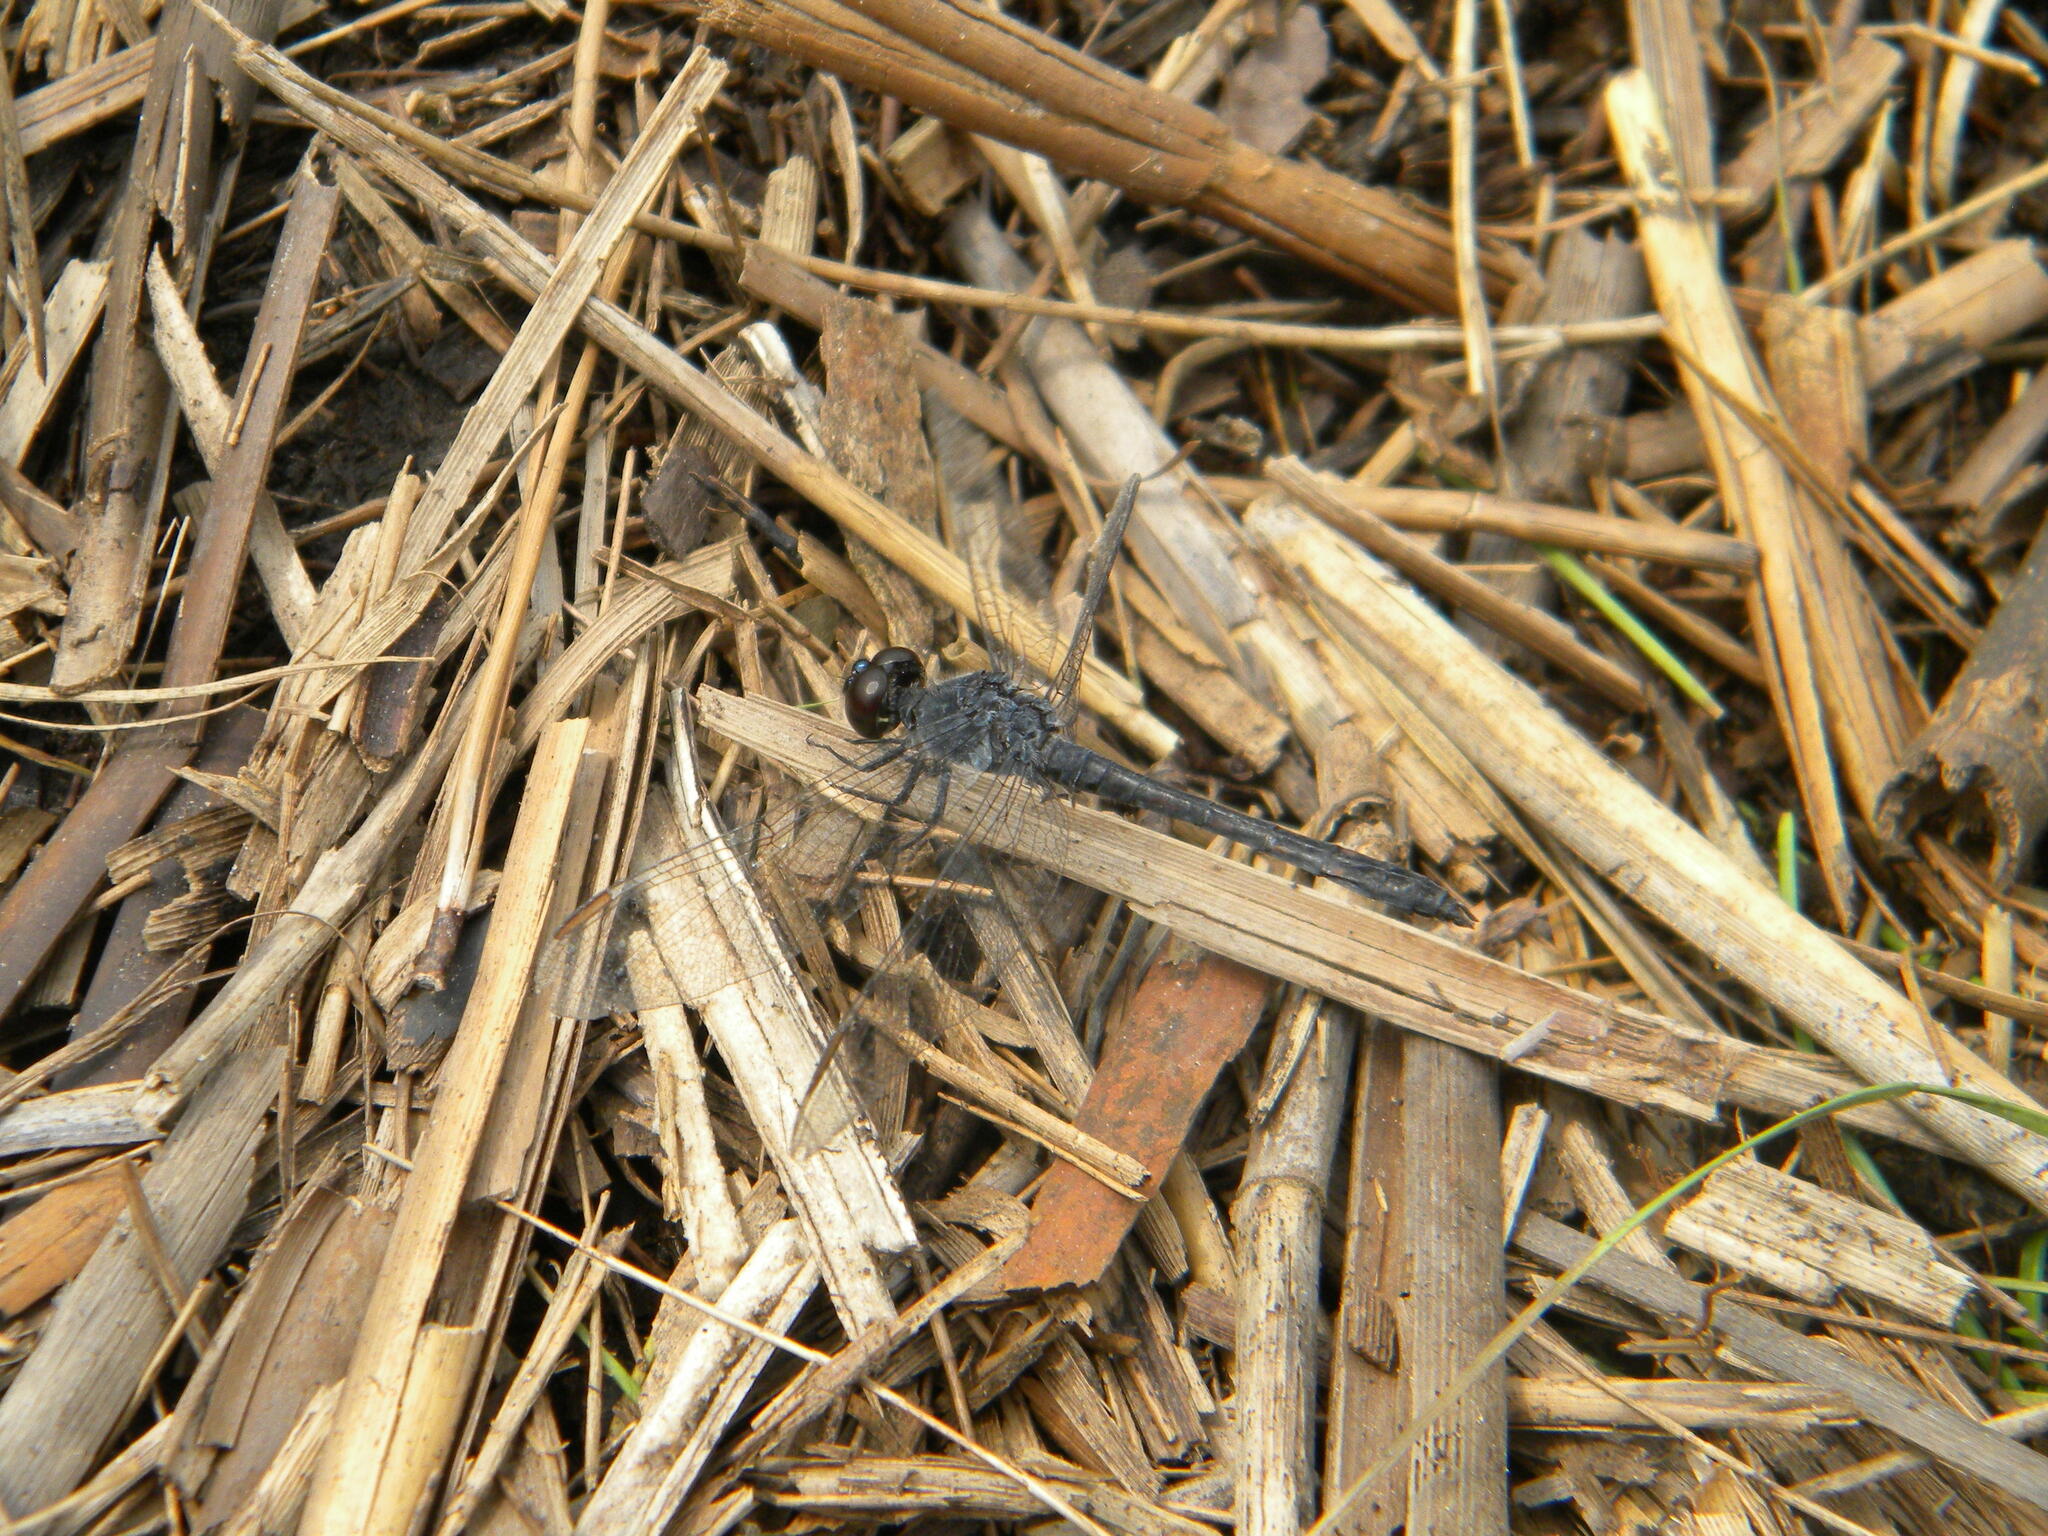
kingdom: Animalia
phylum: Arthropoda
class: Insecta
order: Odonata
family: Libellulidae
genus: Erythrodiplax
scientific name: Erythrodiplax berenice
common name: Seaside dragonlet
